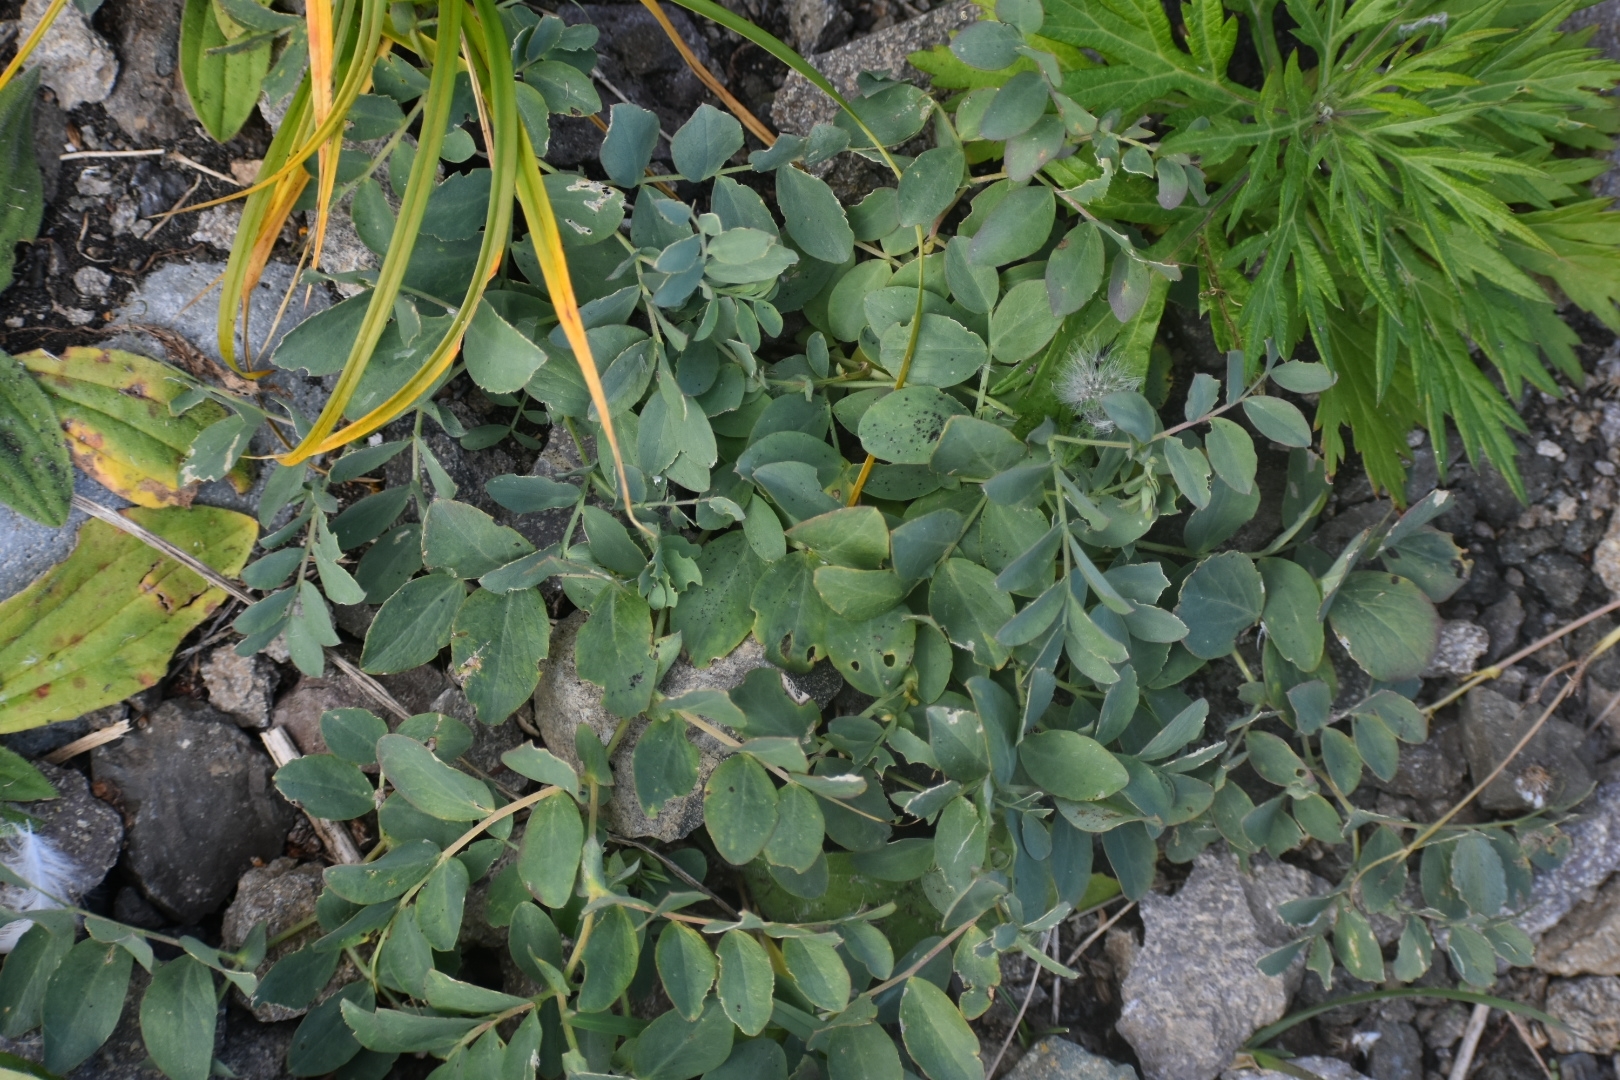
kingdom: Plantae
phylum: Tracheophyta
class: Magnoliopsida
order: Fabales
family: Fabaceae
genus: Lathyrus
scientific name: Lathyrus japonicus
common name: Sea pea
